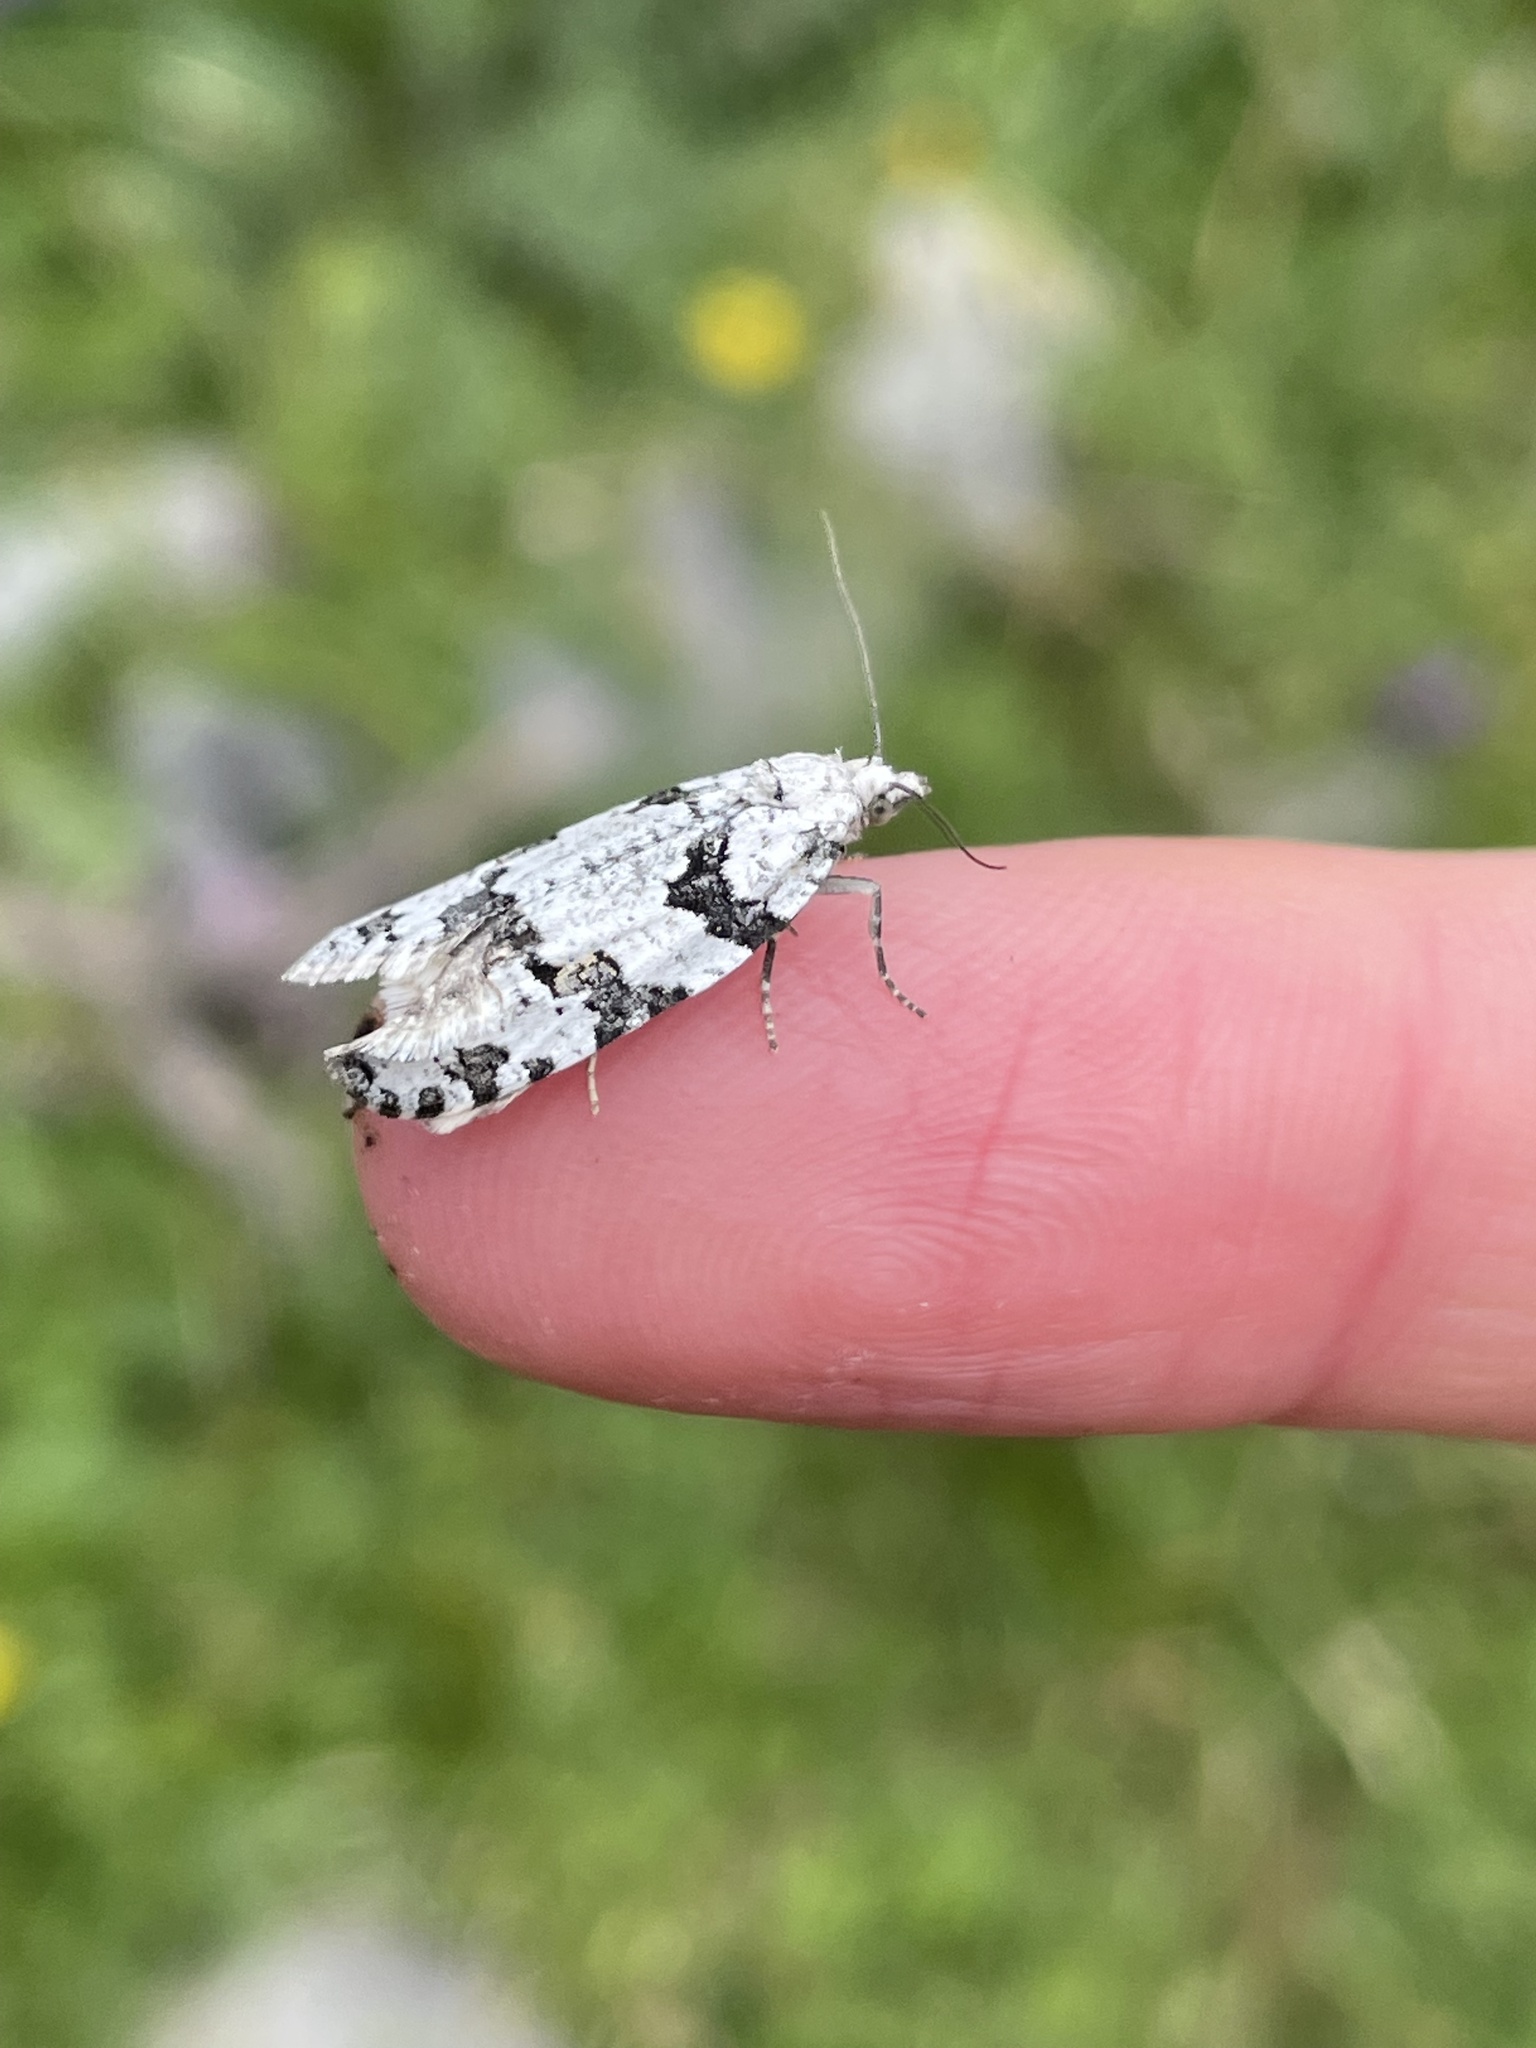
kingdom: Animalia
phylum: Arthropoda
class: Insecta
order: Lepidoptera
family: Tortricidae
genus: Eana
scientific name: Eana penziana
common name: Large mottled shade
